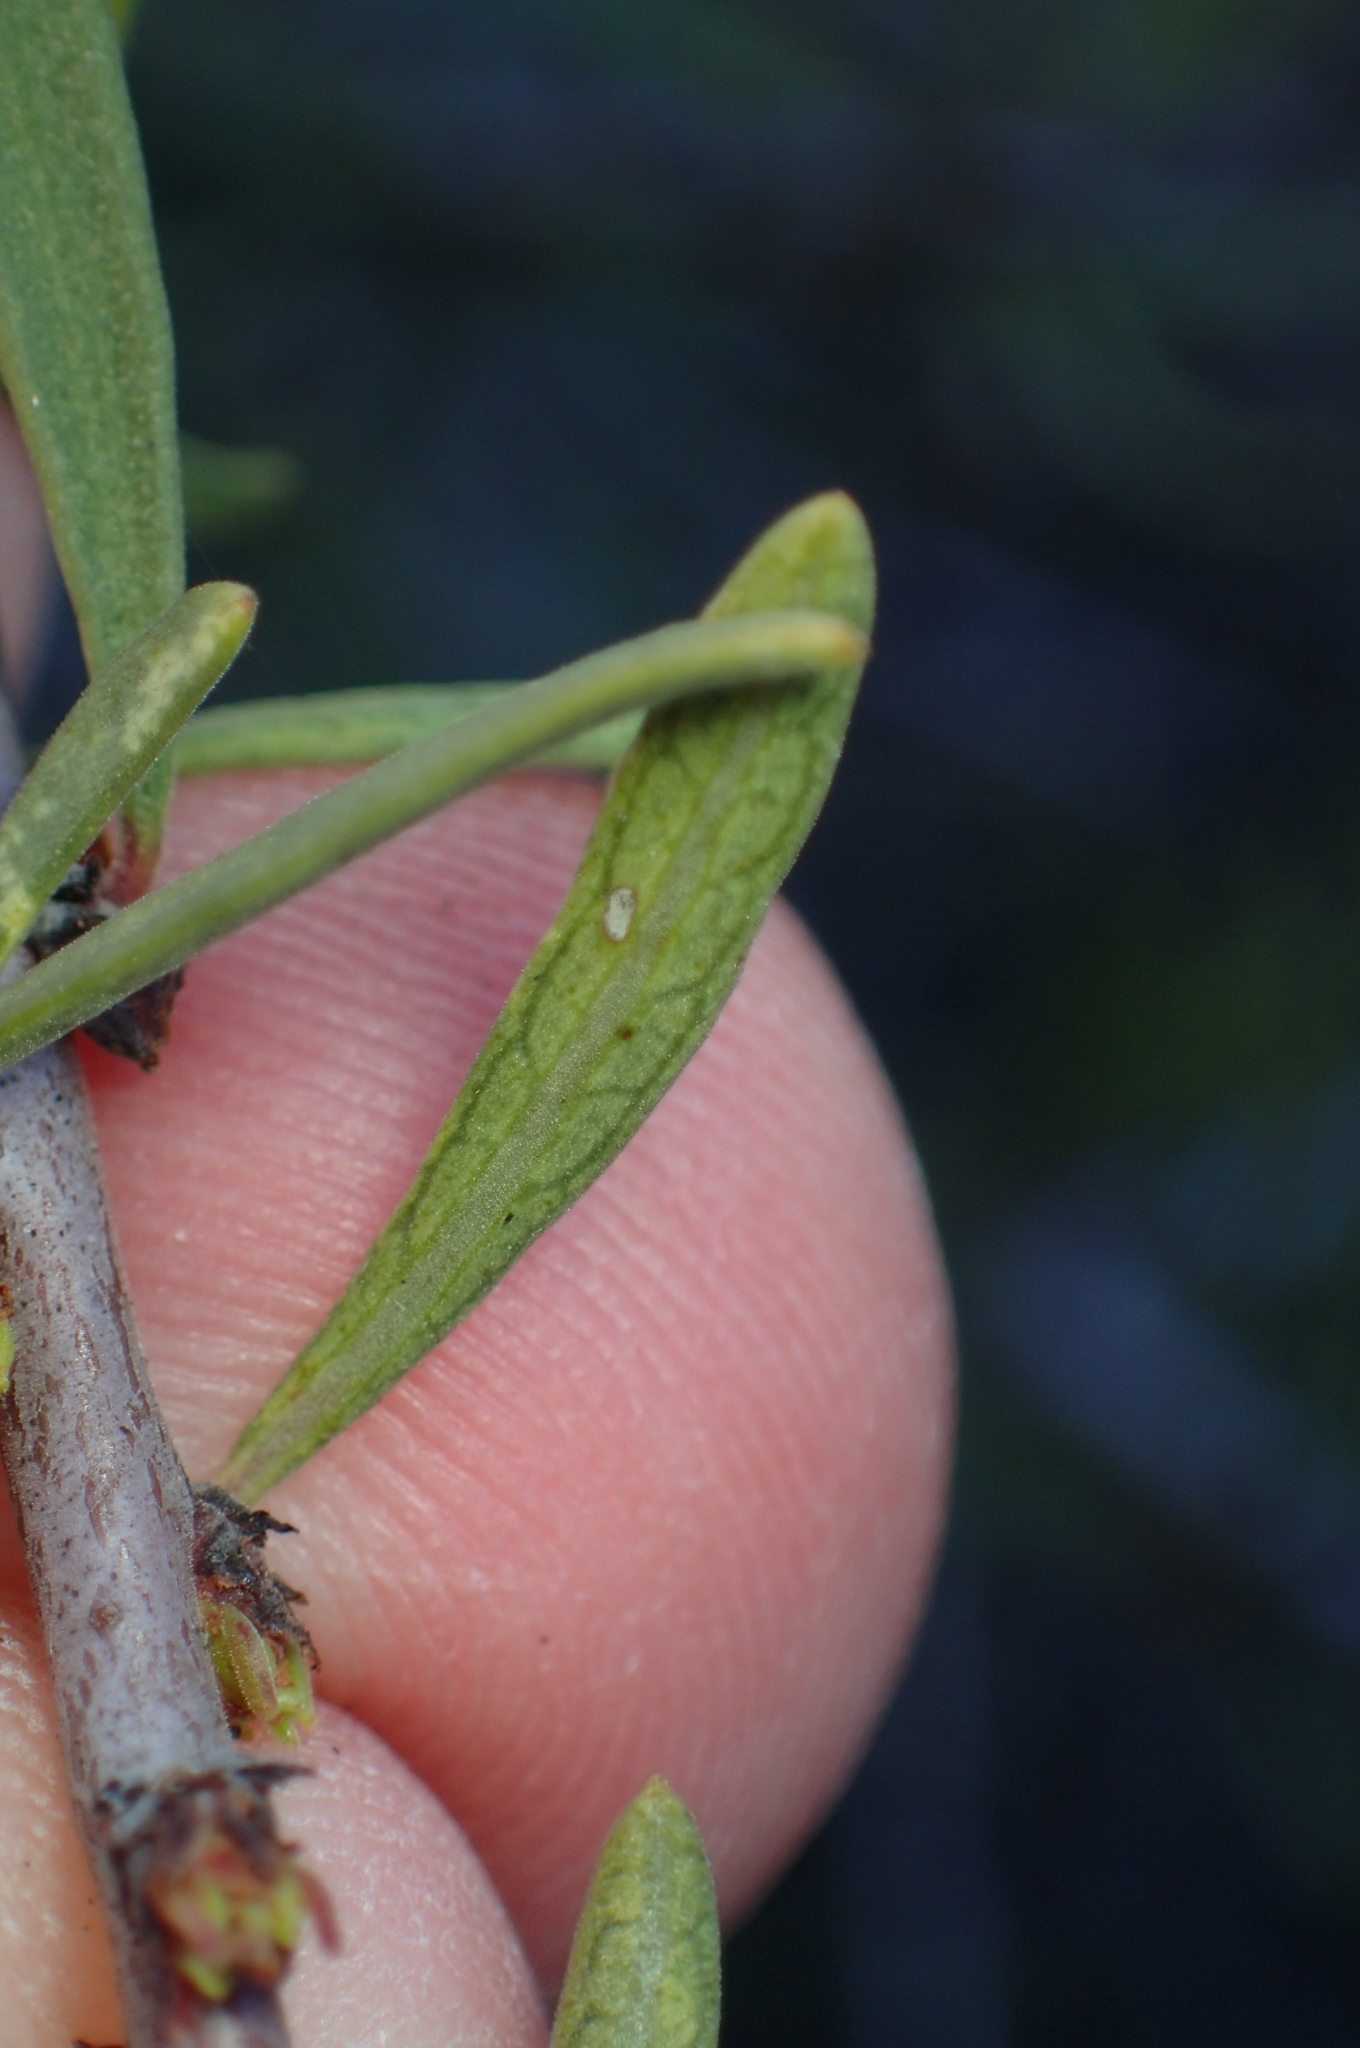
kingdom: Plantae
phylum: Tracheophyta
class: Magnoliopsida
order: Rosales
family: Rhamnaceae
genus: Rhamnus
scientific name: Rhamnus lycioides
